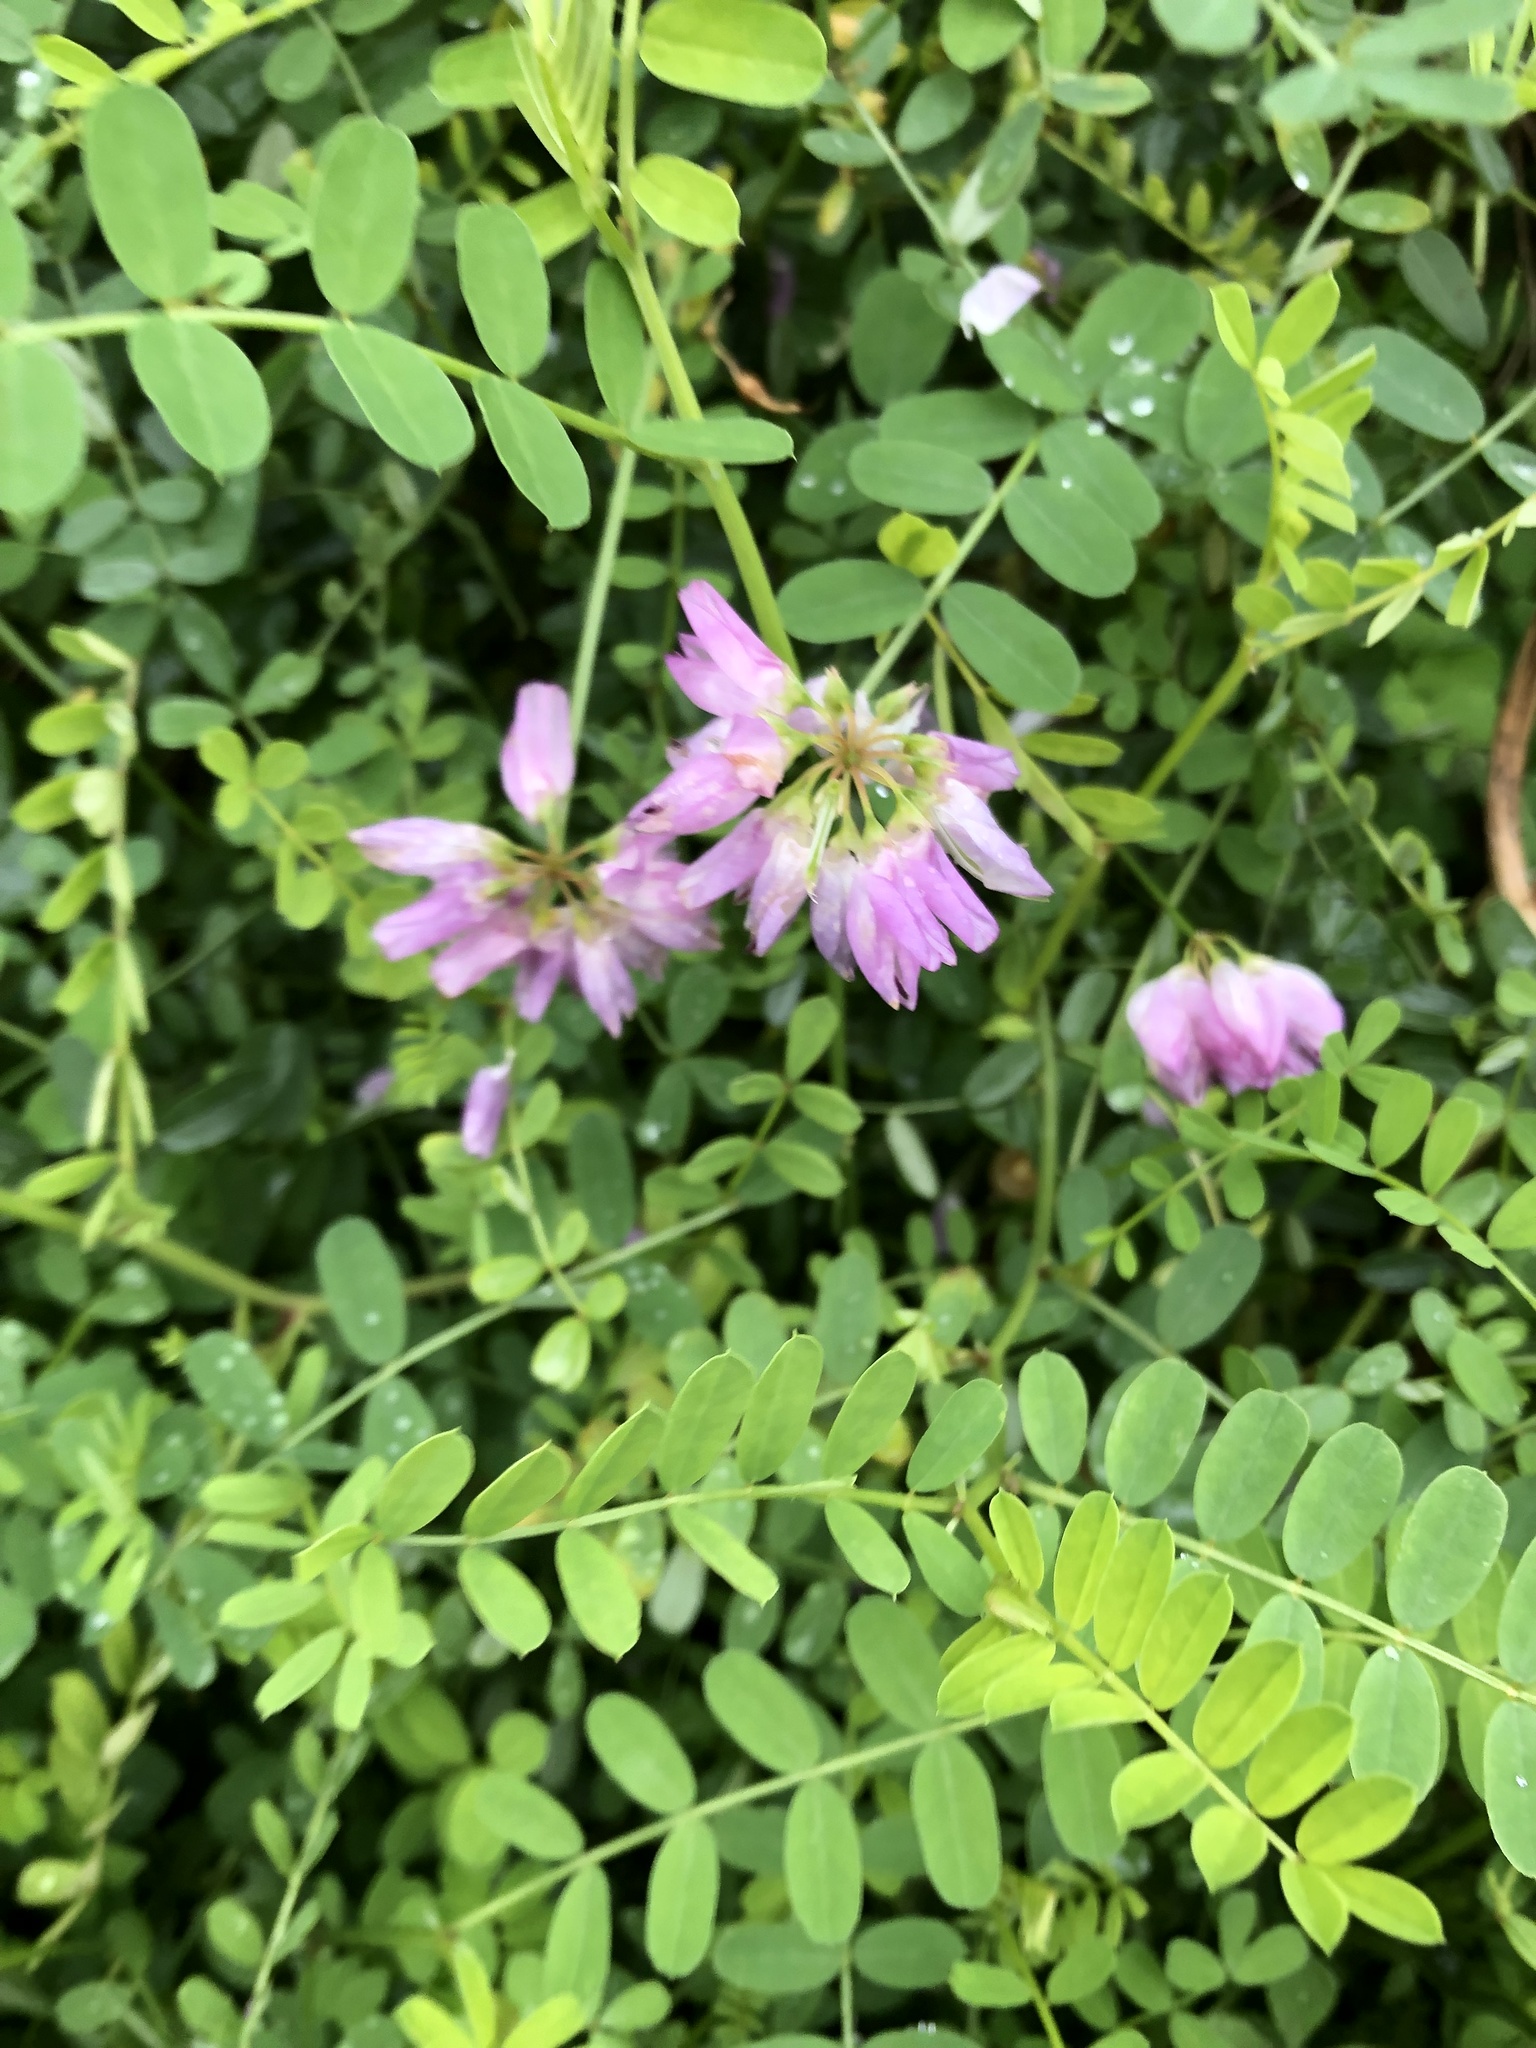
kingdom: Plantae
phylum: Tracheophyta
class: Magnoliopsida
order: Fabales
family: Fabaceae
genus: Coronilla
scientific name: Coronilla varia
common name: Crownvetch
